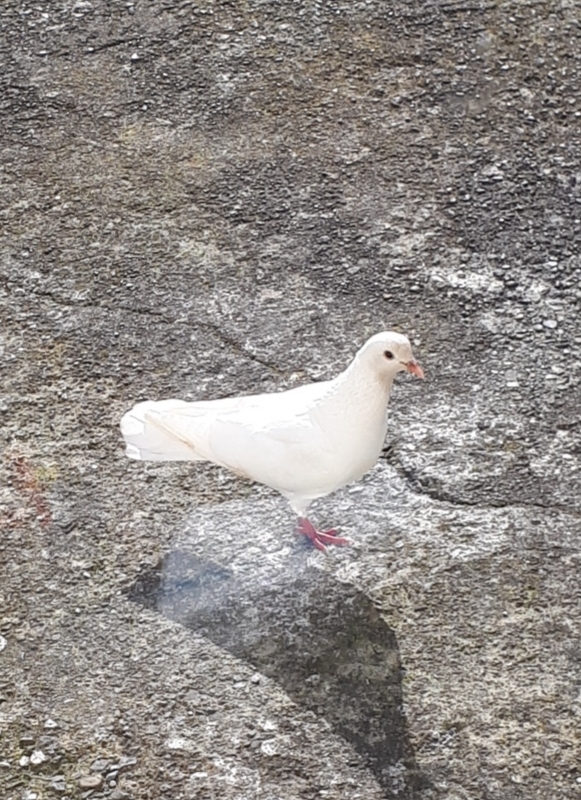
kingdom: Animalia
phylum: Chordata
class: Aves
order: Columbiformes
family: Columbidae
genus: Columba
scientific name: Columba livia
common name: Rock pigeon
